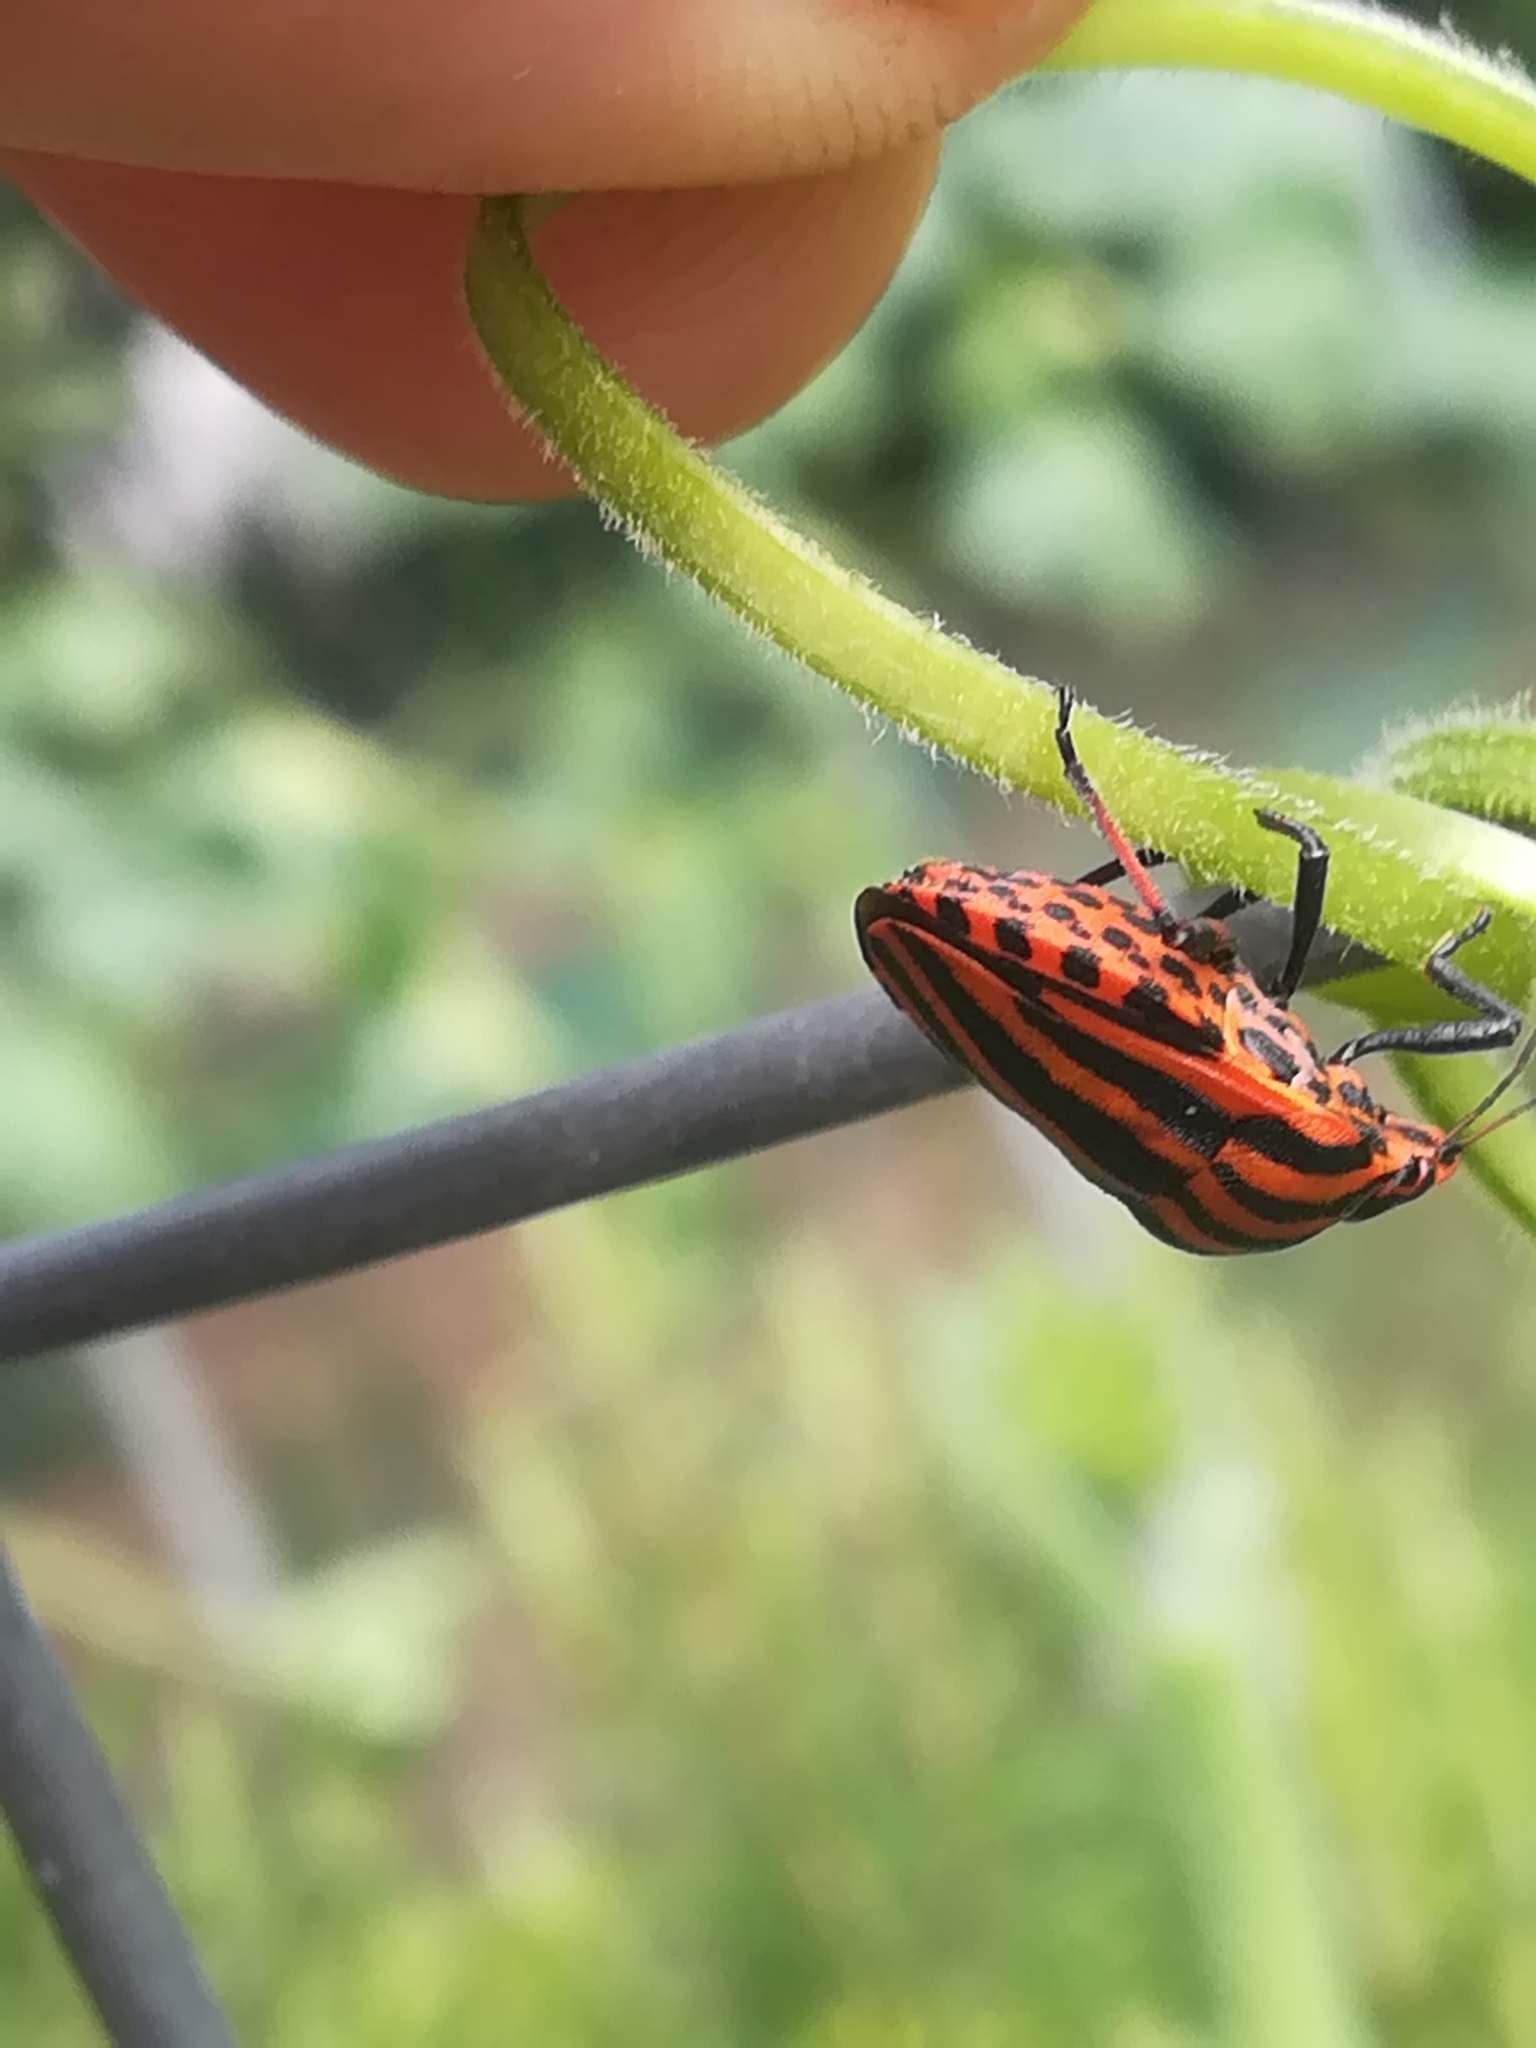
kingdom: Animalia
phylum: Arthropoda
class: Insecta
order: Hemiptera
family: Pentatomidae
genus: Graphosoma
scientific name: Graphosoma italicum
